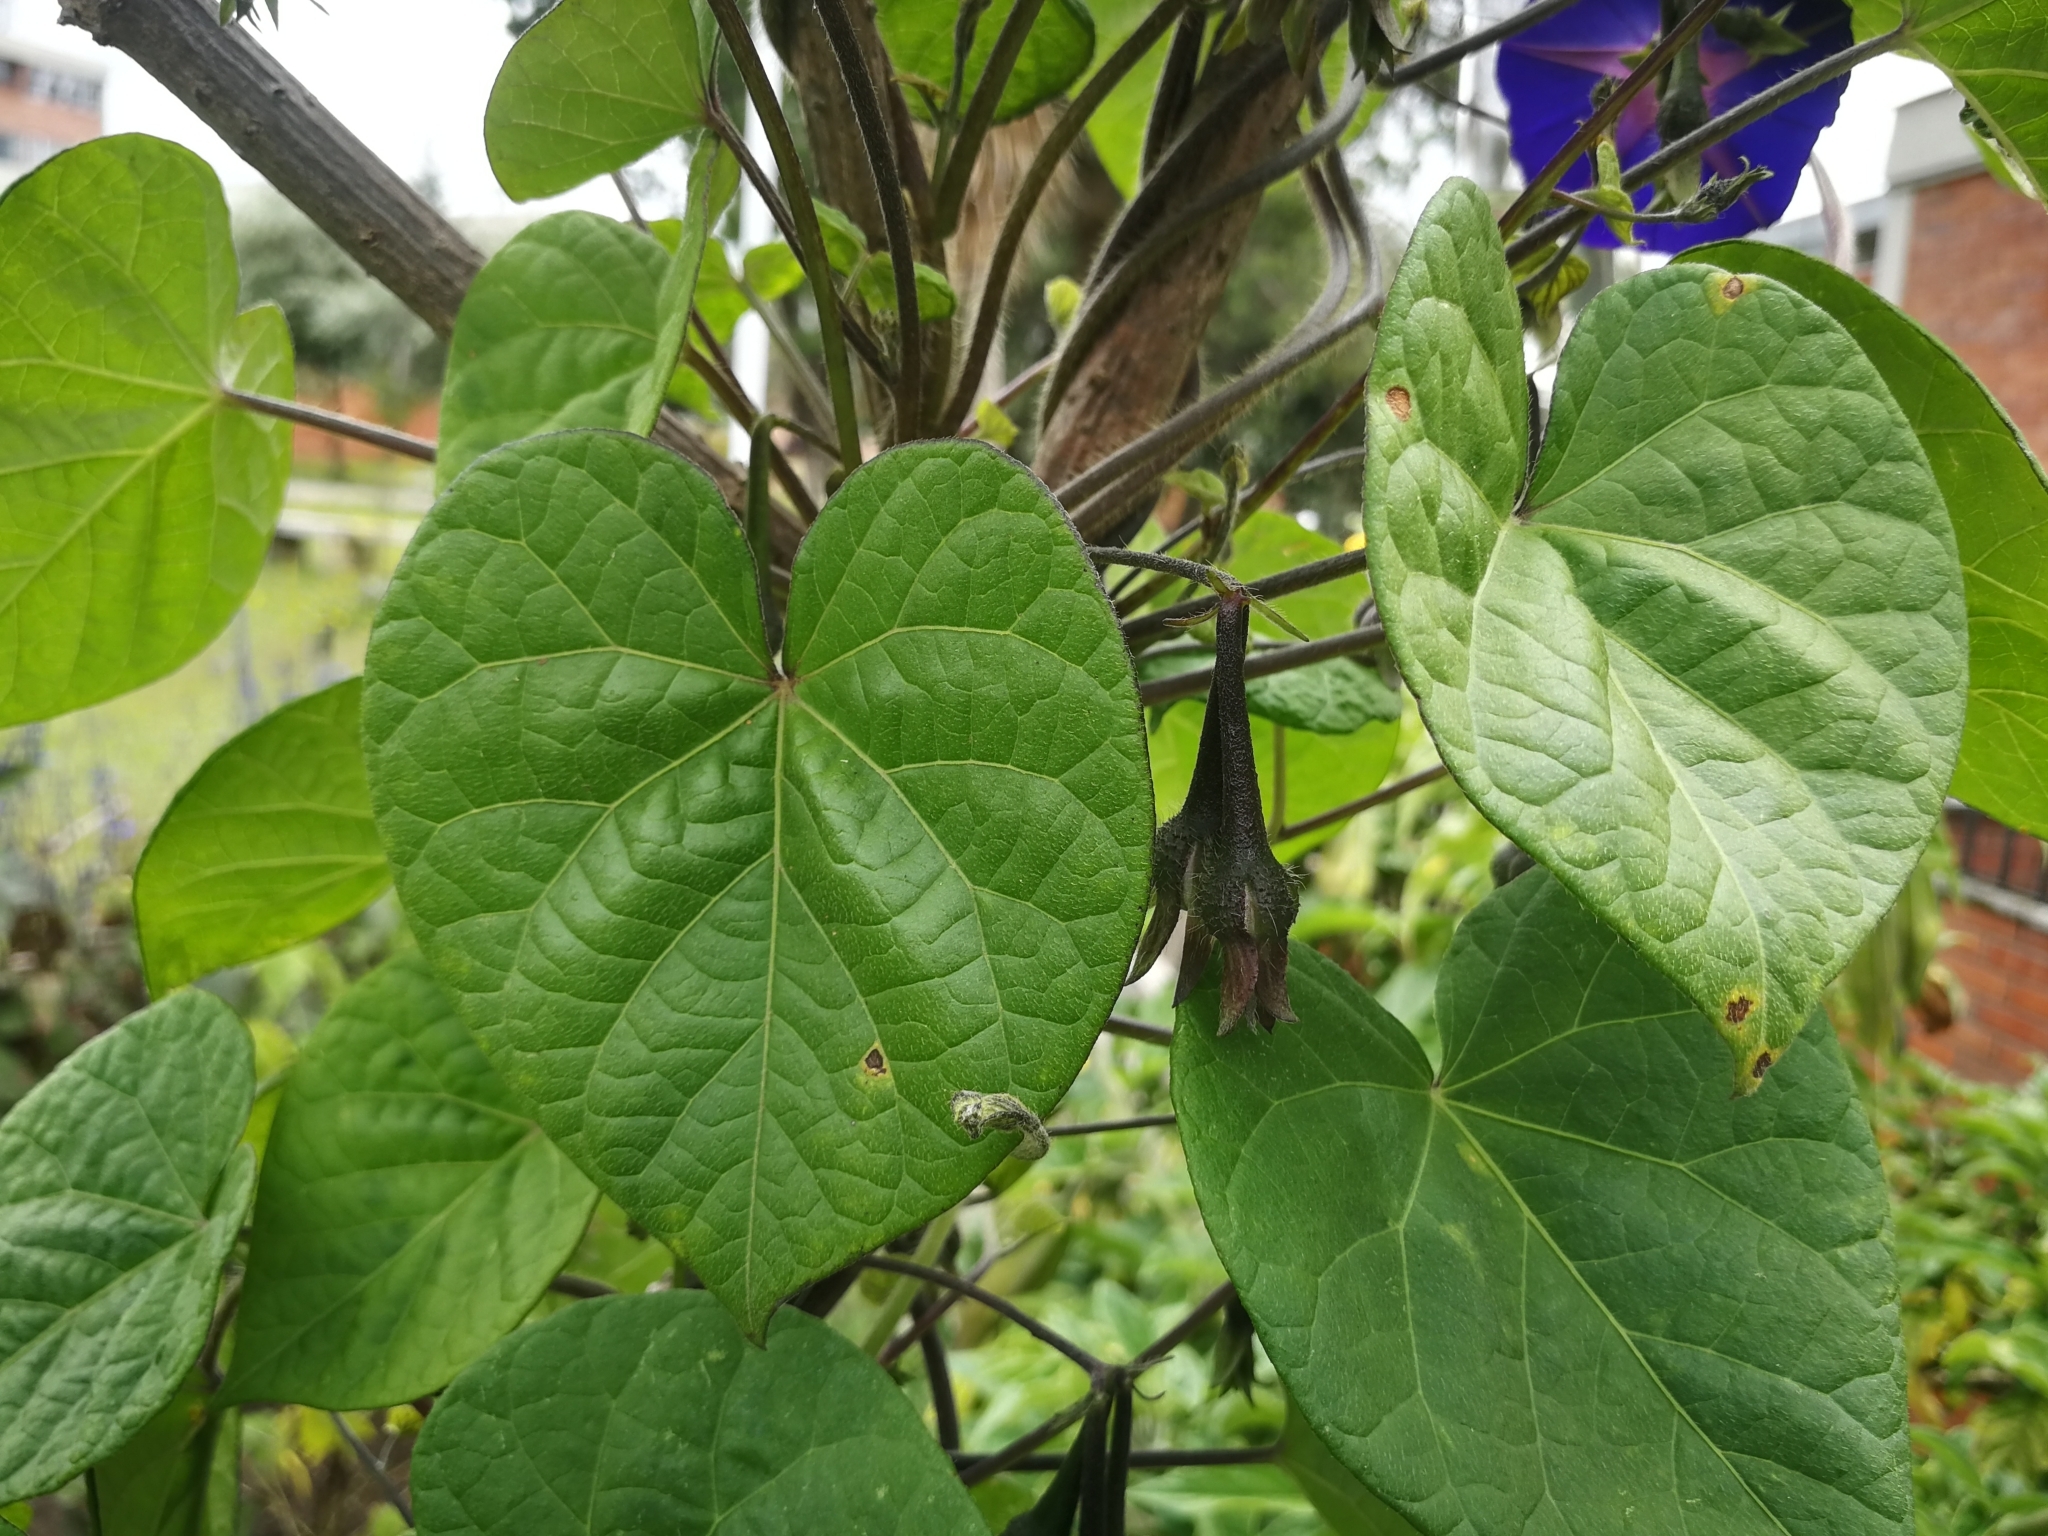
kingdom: Plantae
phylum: Tracheophyta
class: Magnoliopsida
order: Solanales
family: Convolvulaceae
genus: Ipomoea
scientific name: Ipomoea purpurea
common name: Common morning-glory
